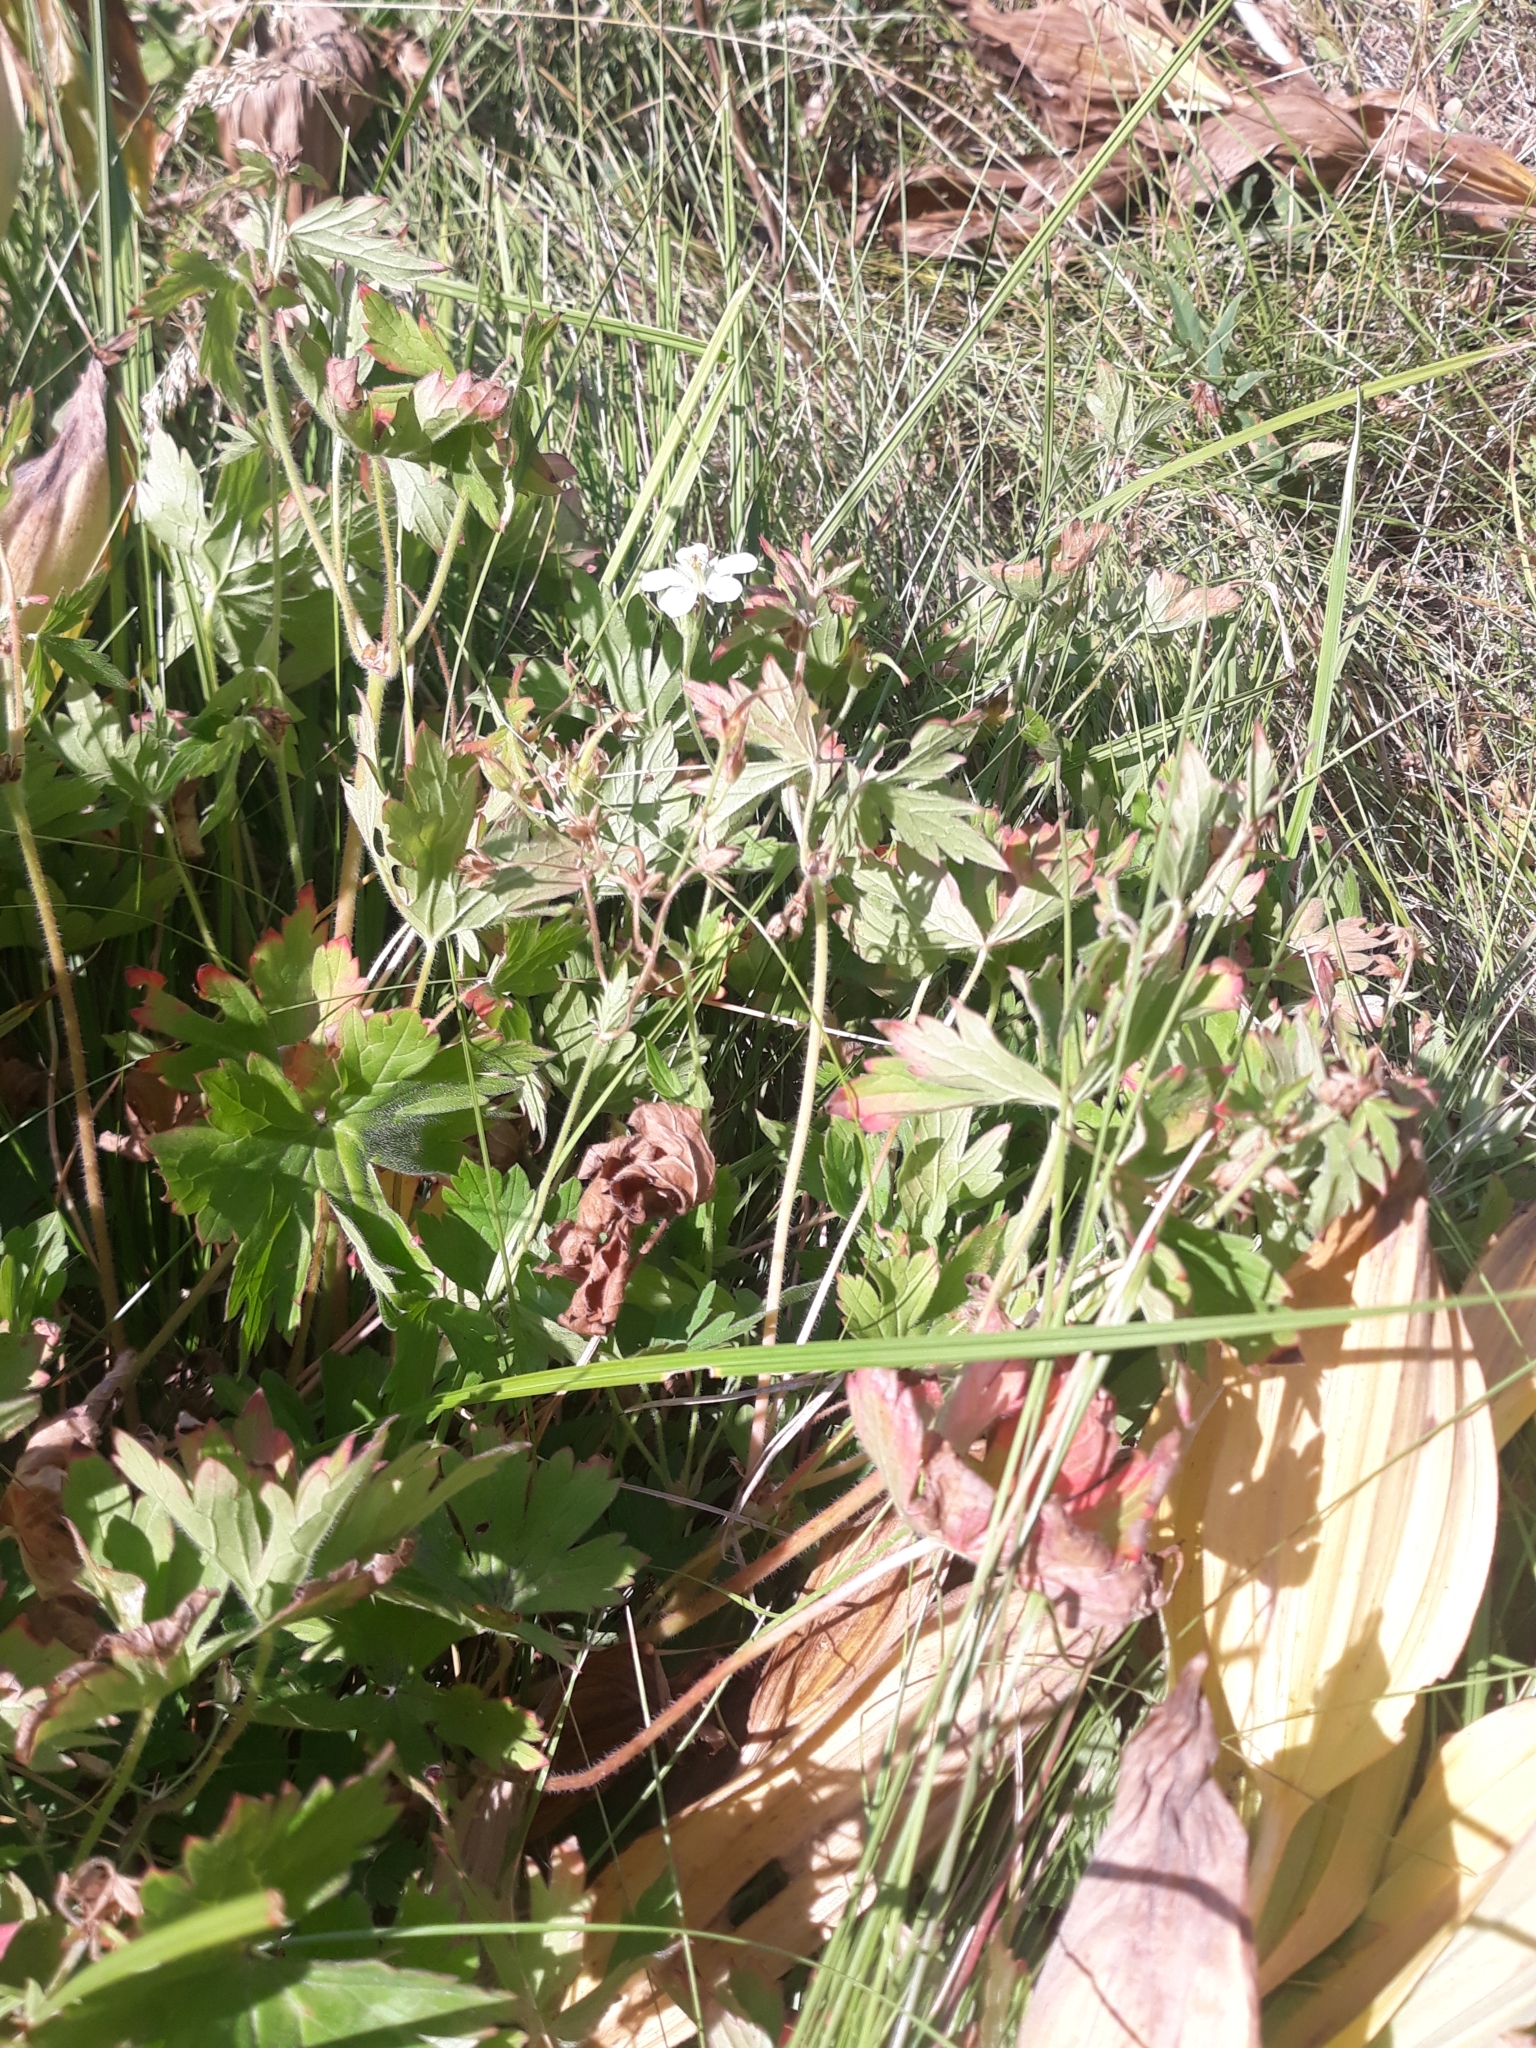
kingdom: Plantae
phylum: Tracheophyta
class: Magnoliopsida
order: Geraniales
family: Geraniaceae
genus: Geranium
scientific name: Geranium richardsonii
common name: Richardson's crane's-bill
